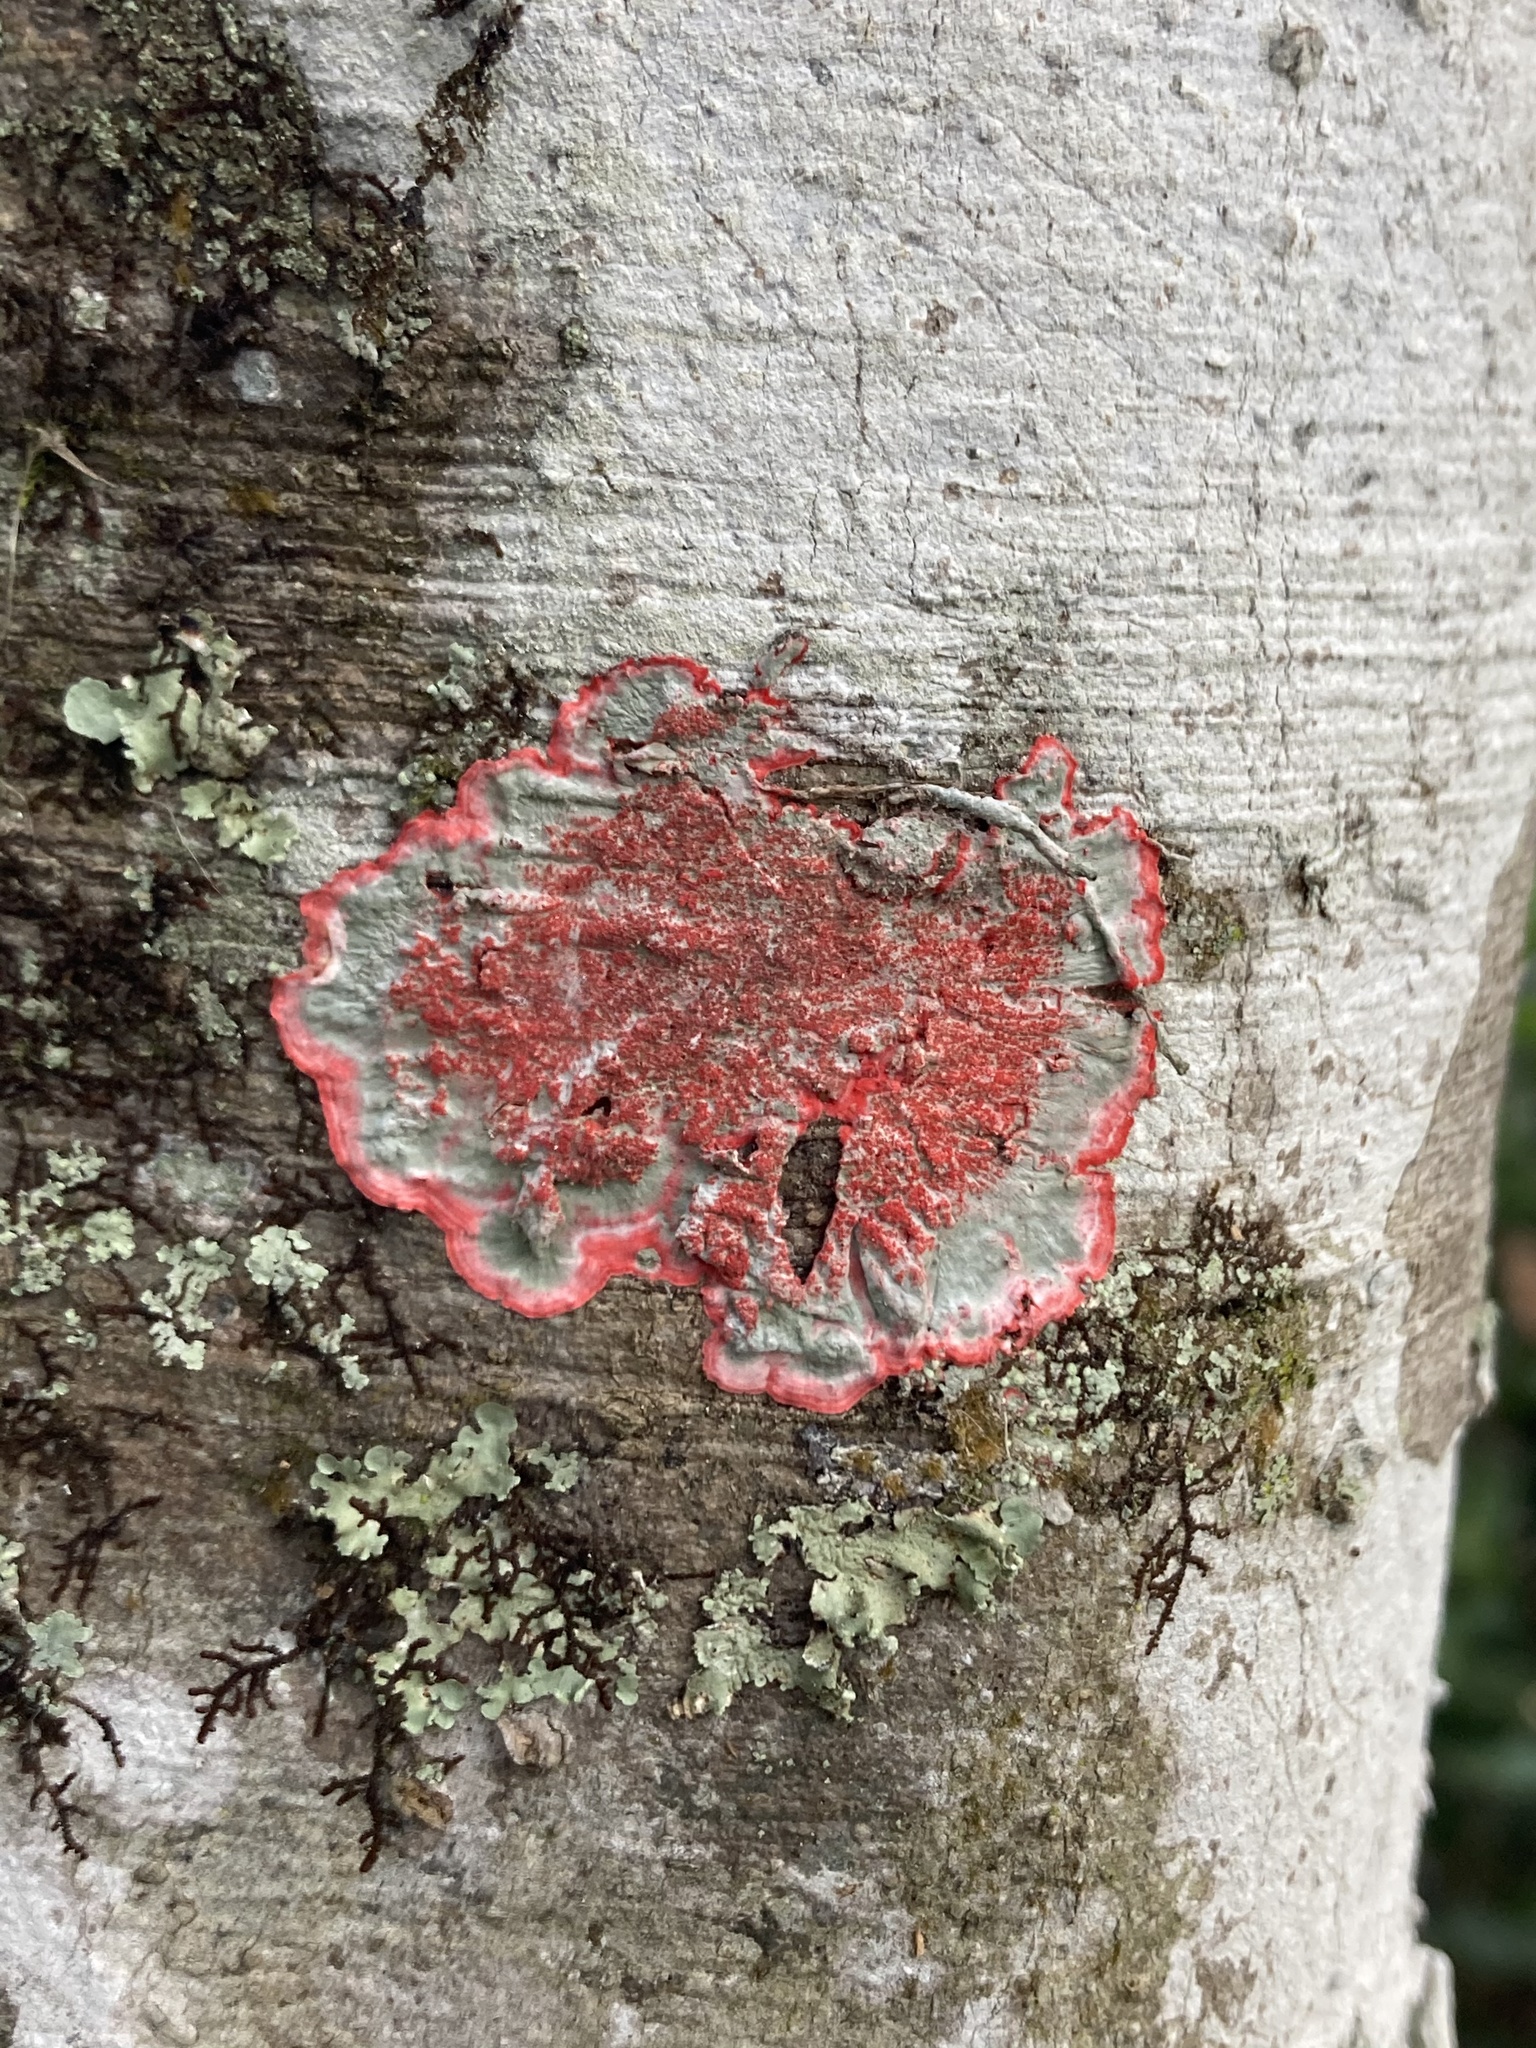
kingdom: Fungi
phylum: Ascomycota
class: Arthoniomycetes
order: Arthoniales
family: Arthoniaceae
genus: Herpothallon
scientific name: Herpothallon rubrocinctum
